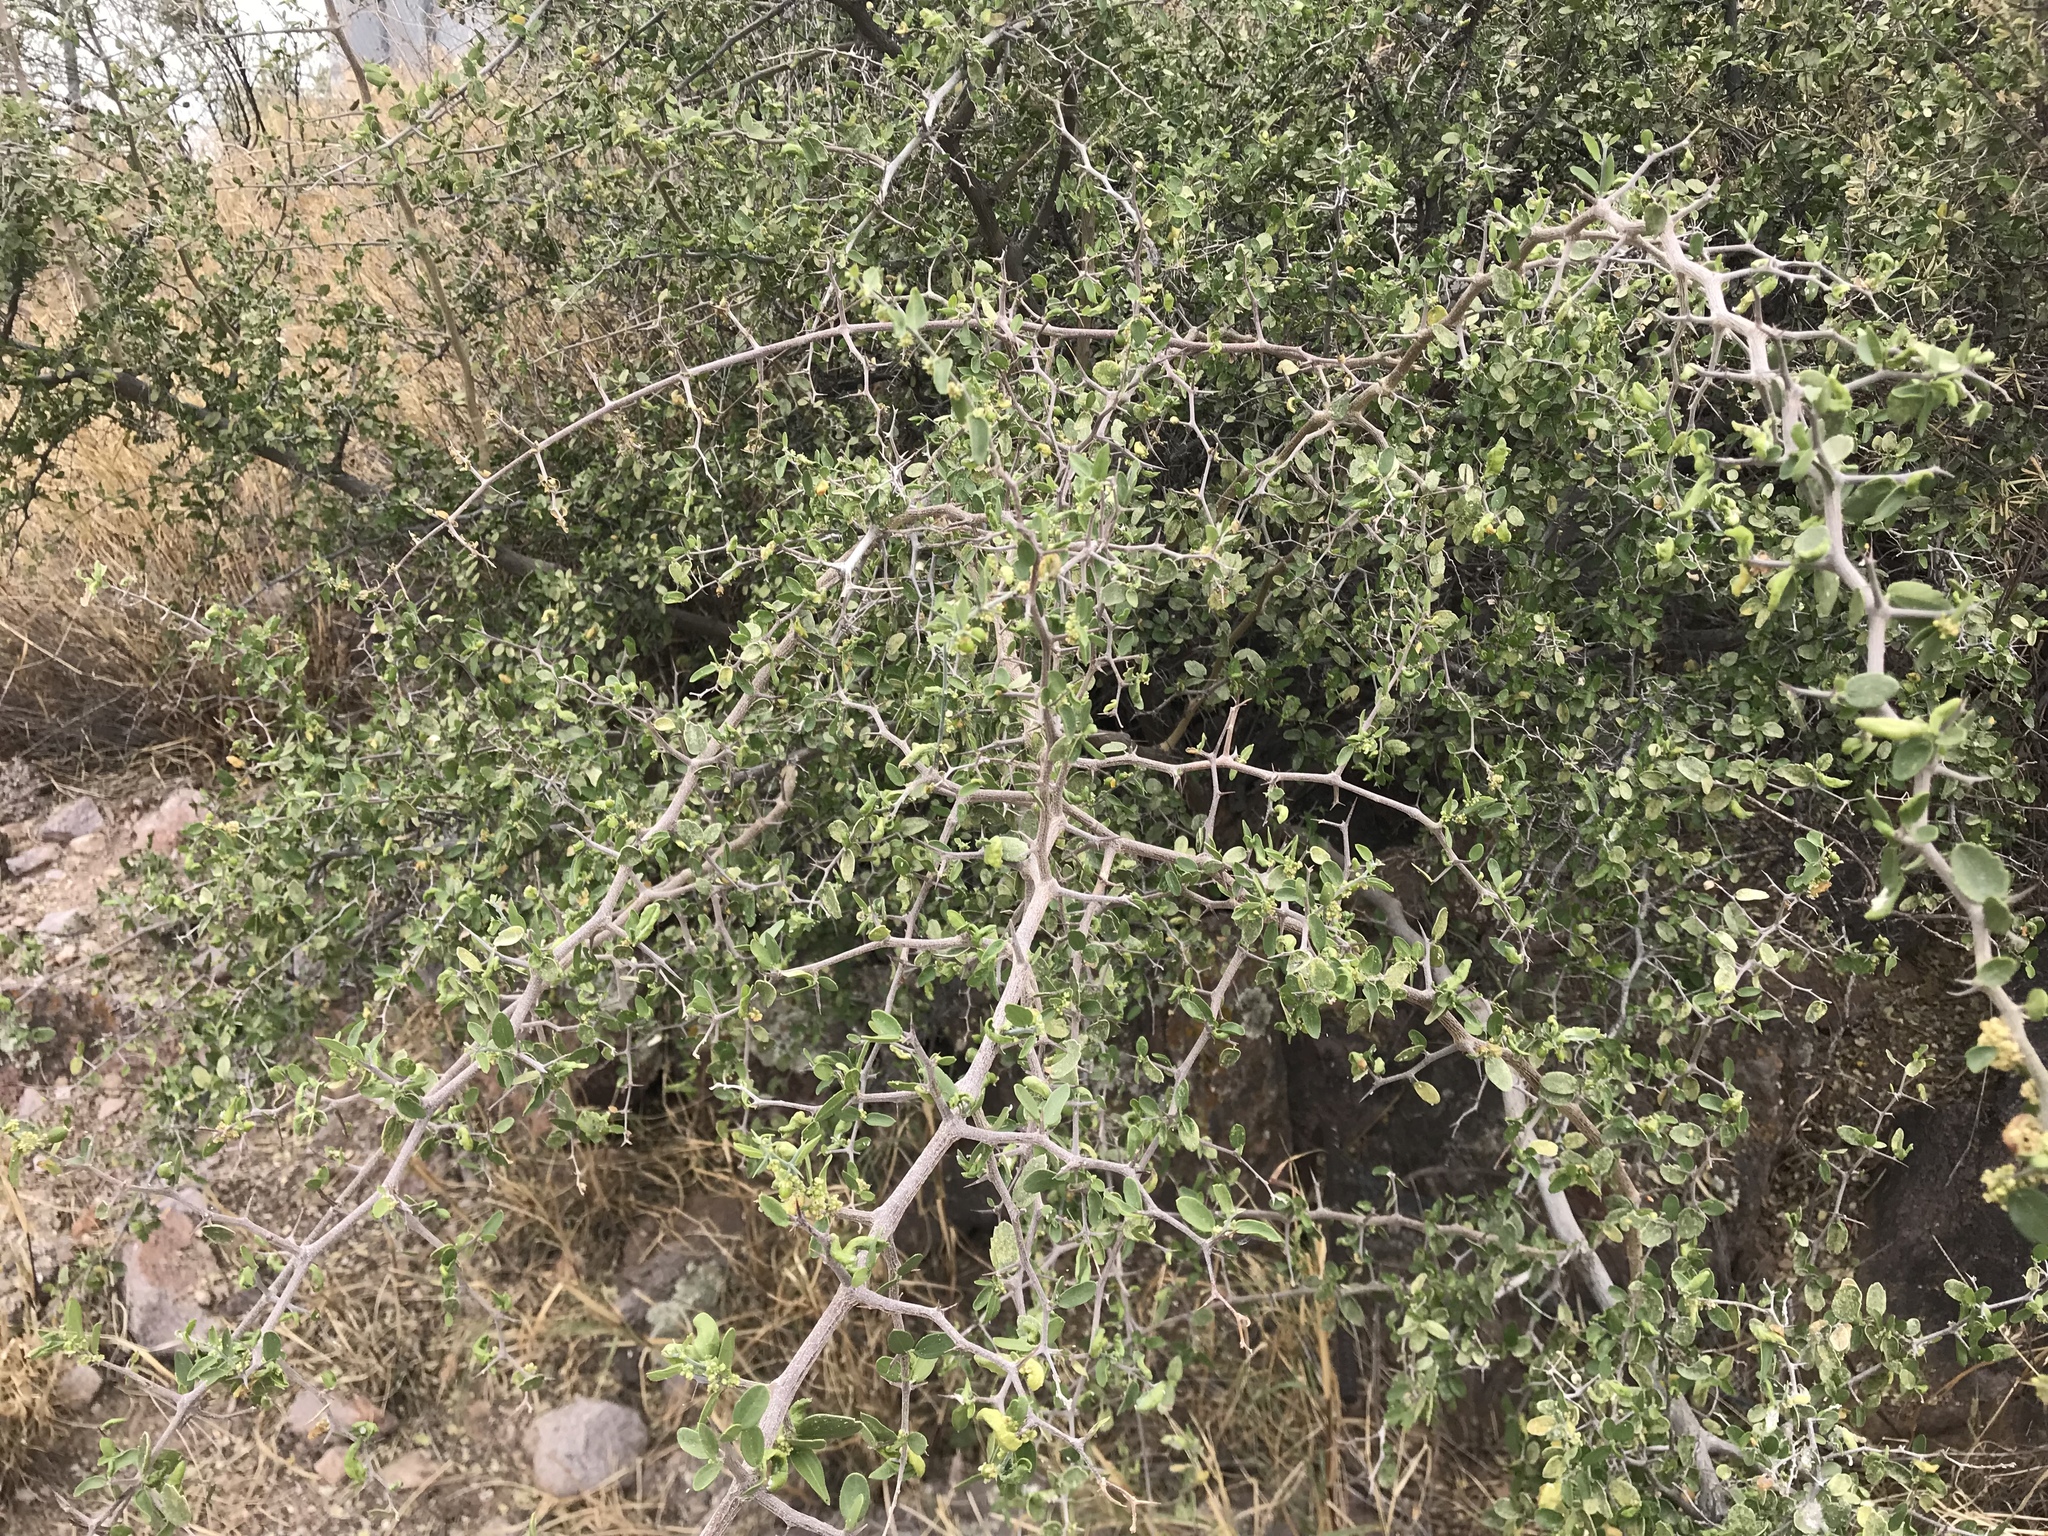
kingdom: Plantae
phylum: Tracheophyta
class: Magnoliopsida
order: Rosales
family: Cannabaceae
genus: Celtis
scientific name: Celtis pallida
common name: Desert hackberry
